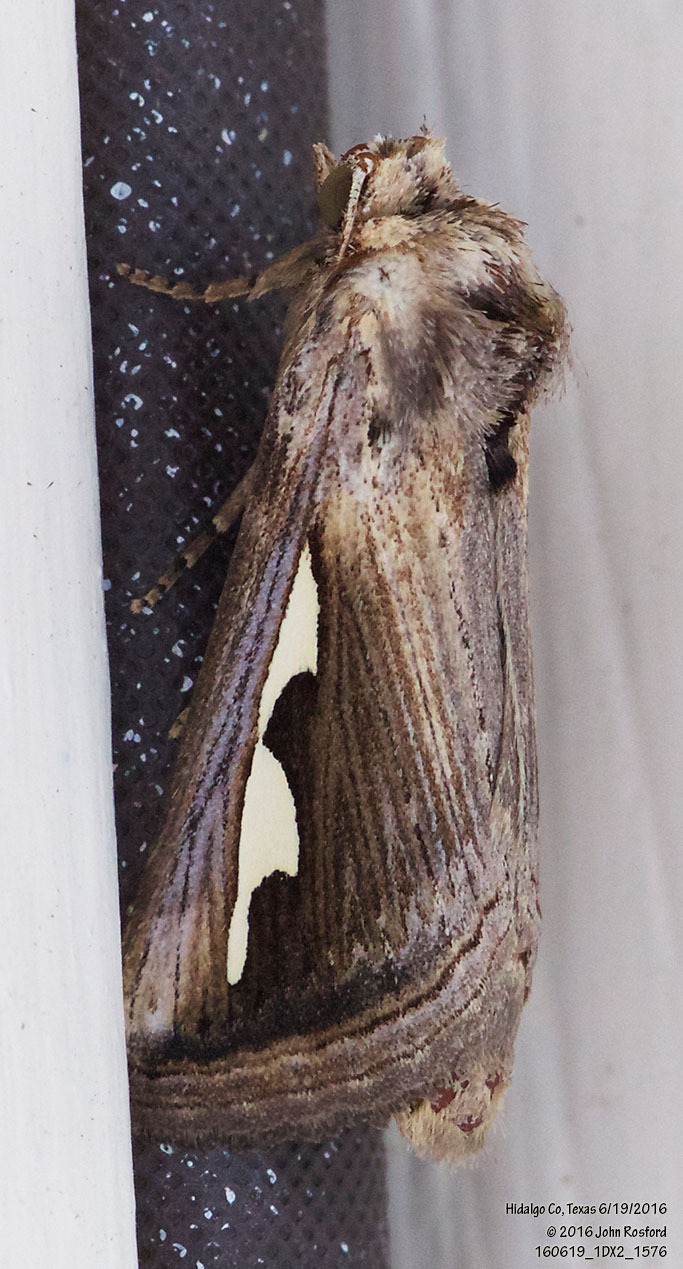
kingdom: Animalia
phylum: Arthropoda
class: Insecta
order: Lepidoptera
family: Notodontidae
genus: Didugua
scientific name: Didugua argentilinea
